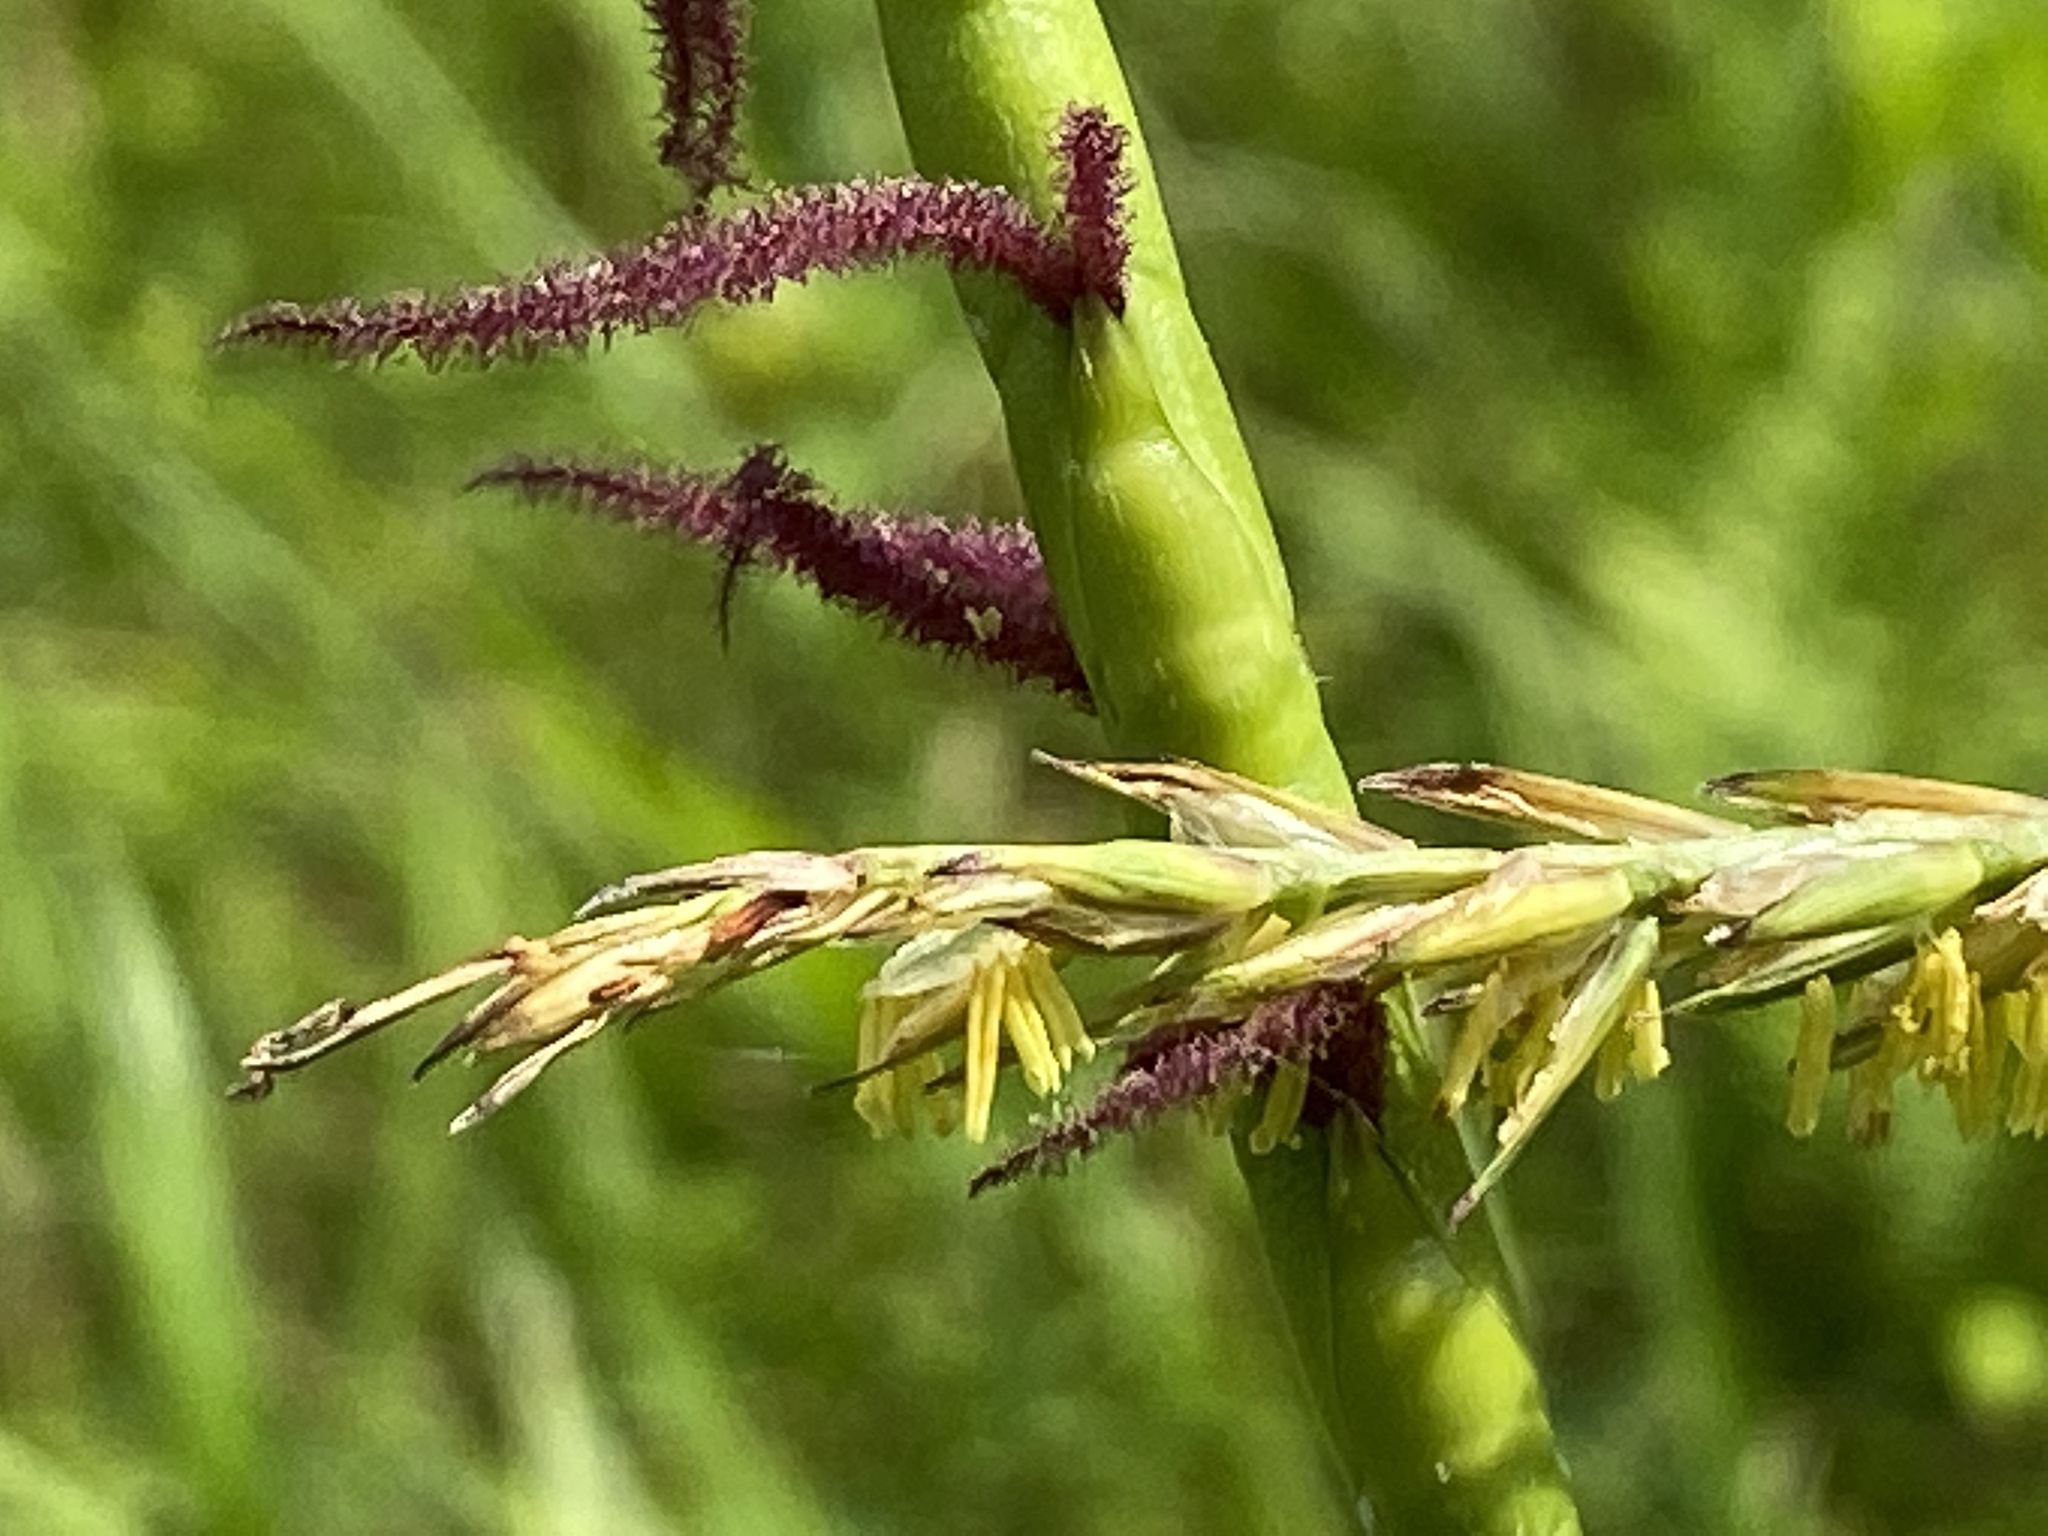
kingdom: Plantae
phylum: Tracheophyta
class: Liliopsida
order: Poales
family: Poaceae
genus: Tripsacum
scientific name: Tripsacum dactyloides
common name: Buffalo-grass
